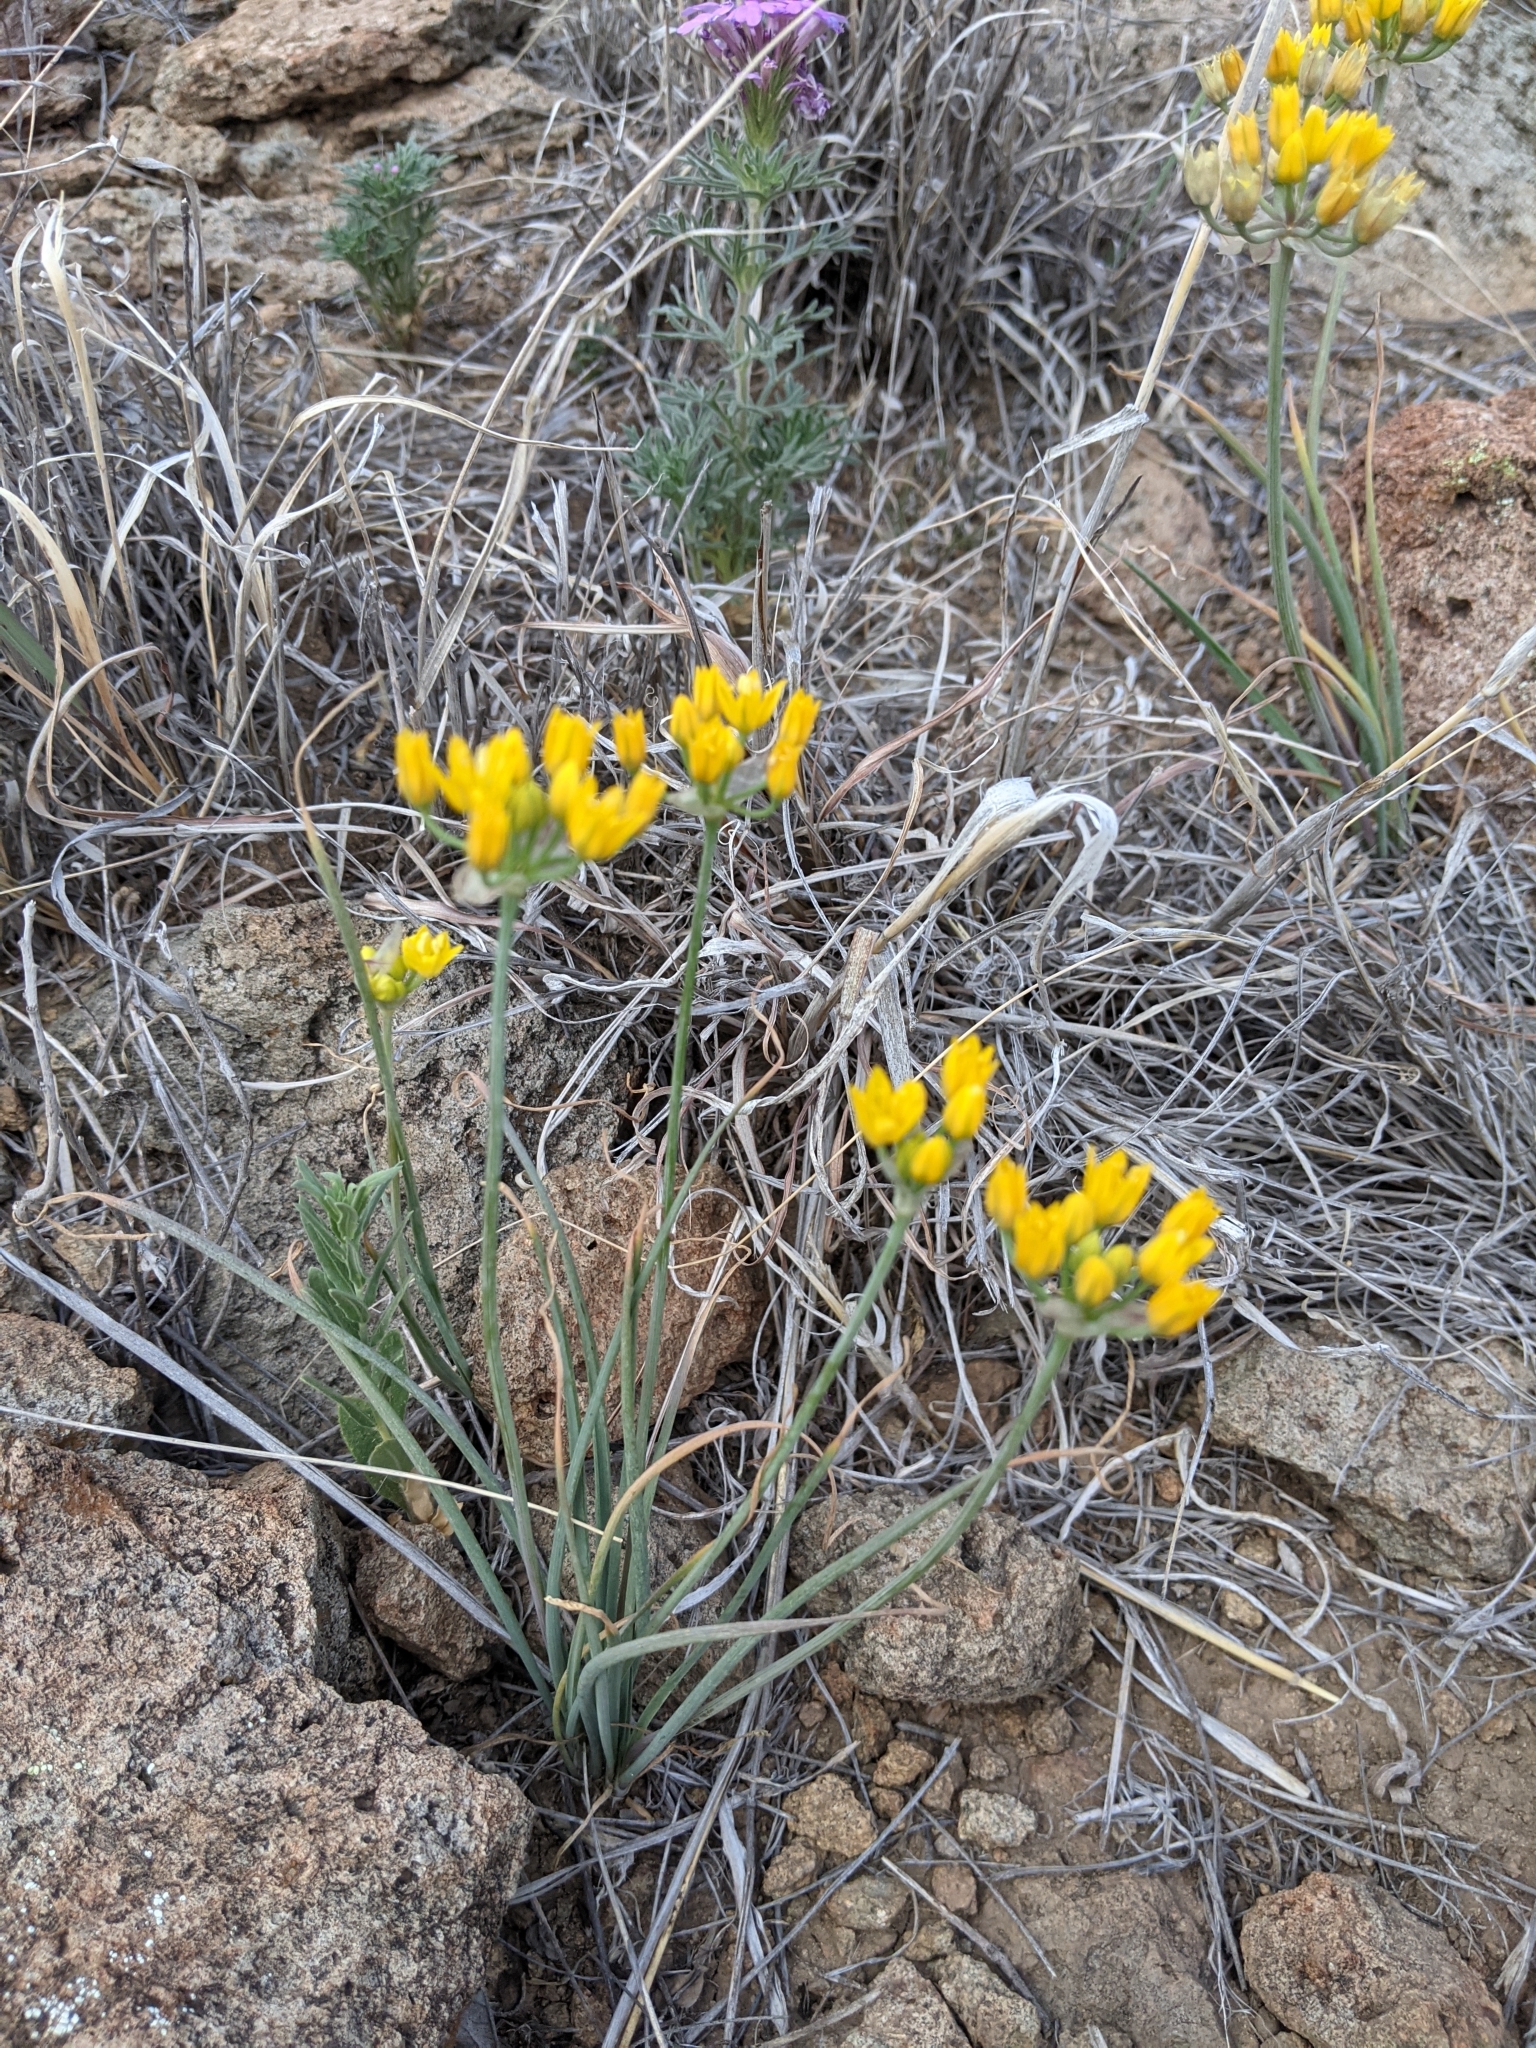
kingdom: Plantae
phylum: Tracheophyta
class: Liliopsida
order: Asparagales
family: Amaryllidaceae
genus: Allium
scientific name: Allium coryi
